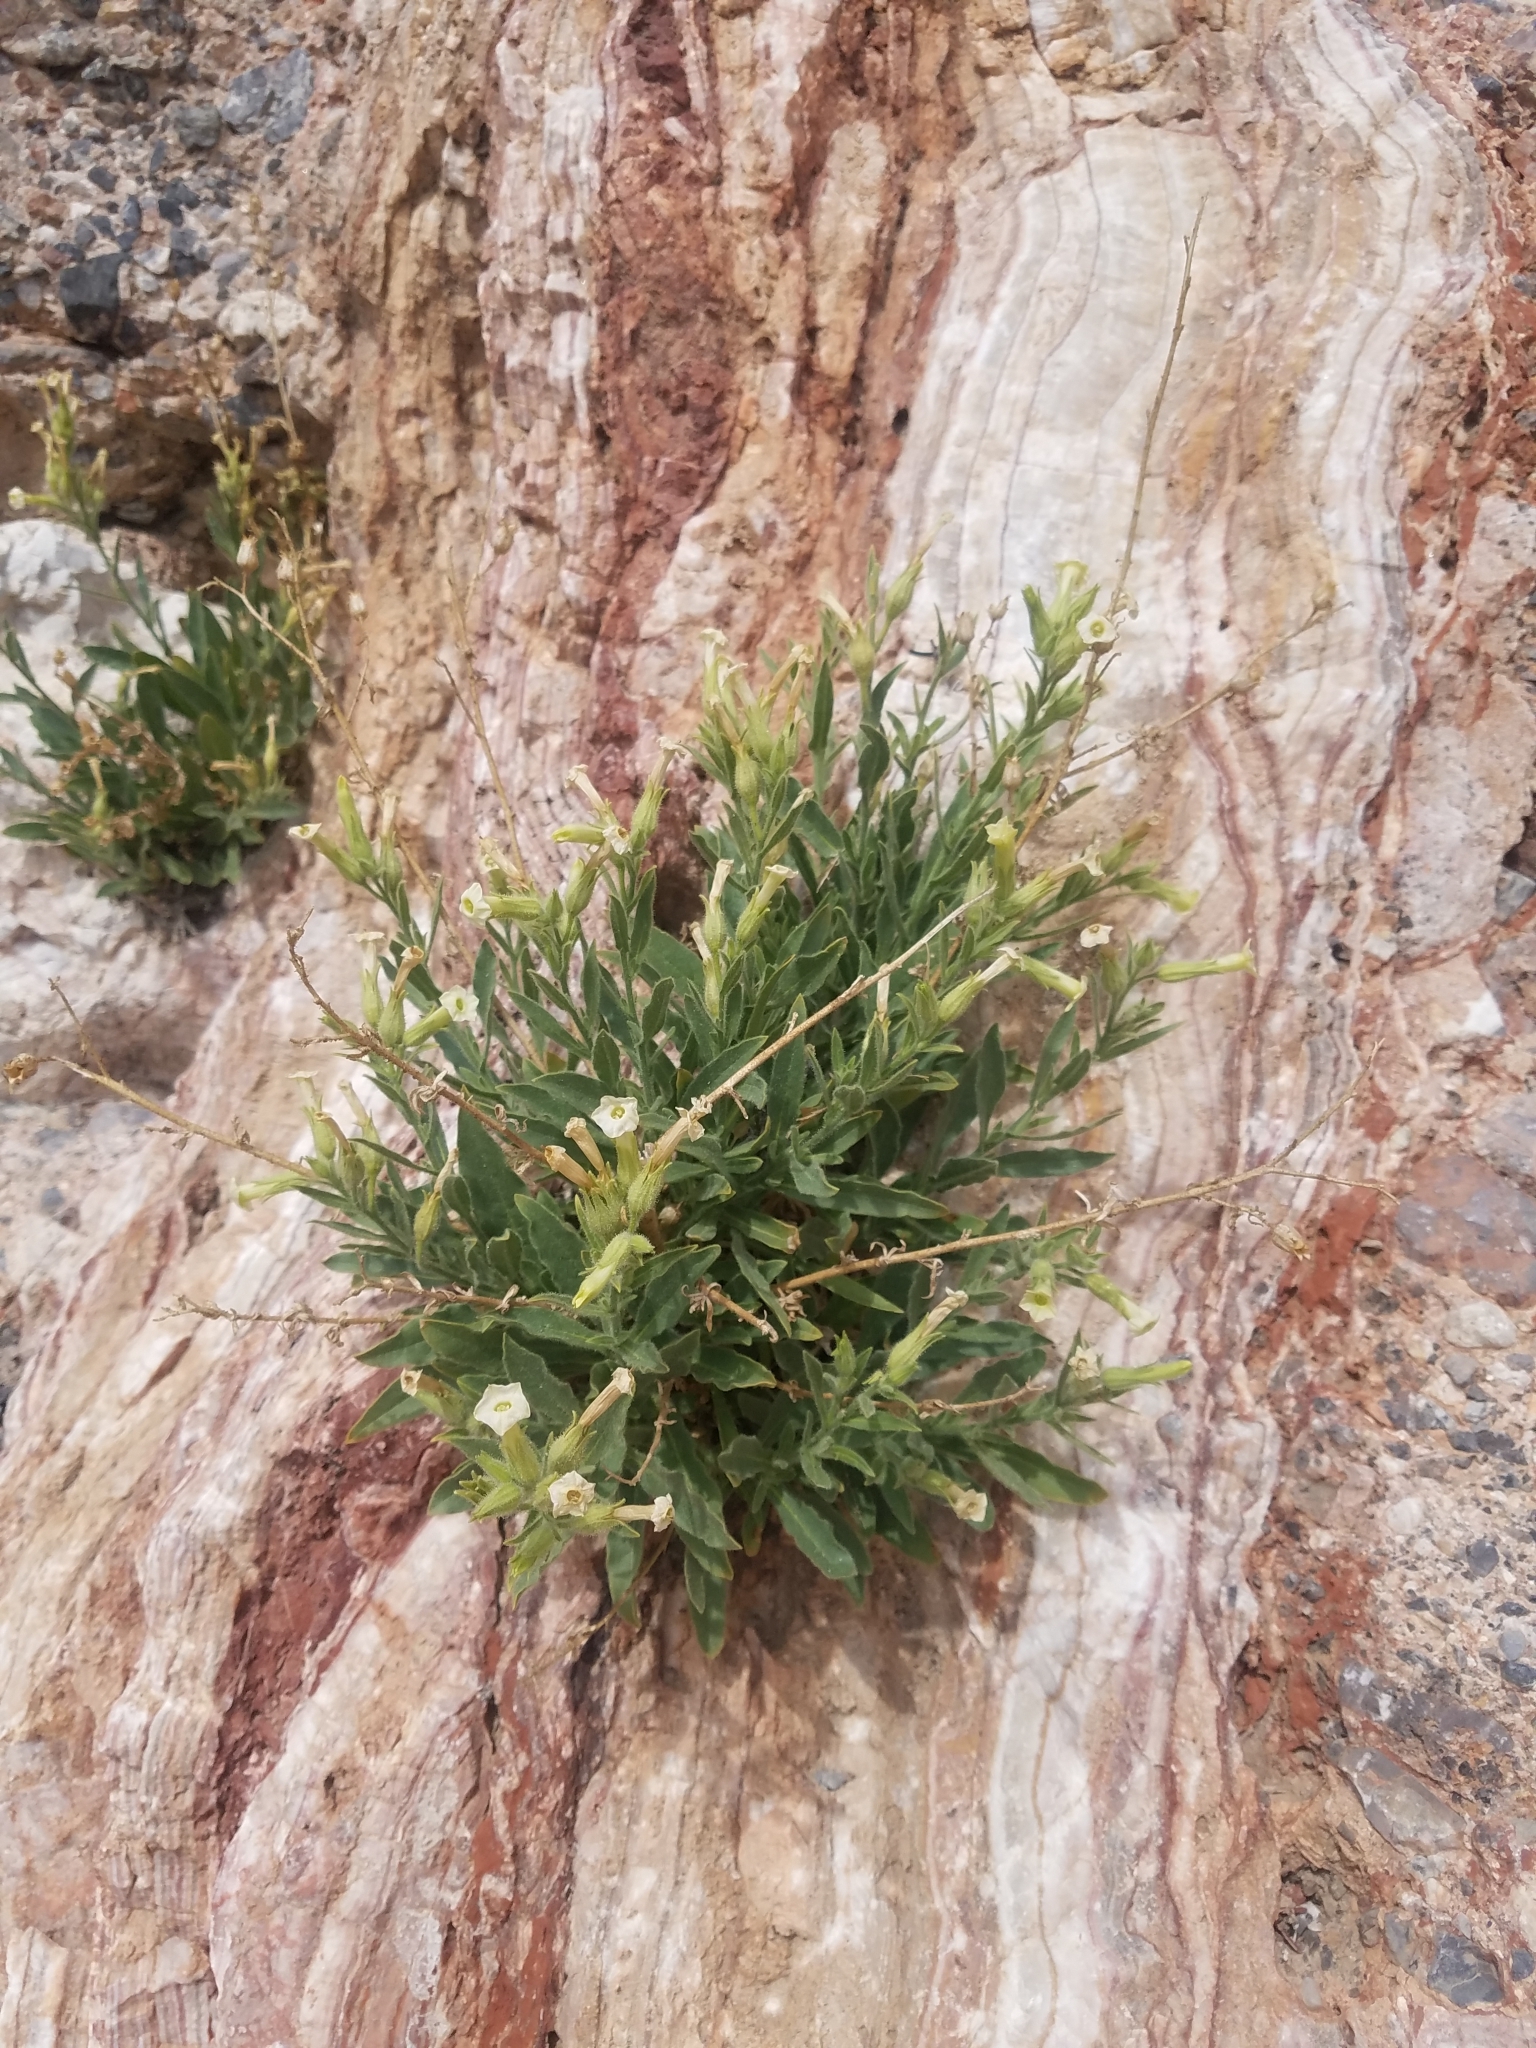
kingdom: Plantae
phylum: Tracheophyta
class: Magnoliopsida
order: Solanales
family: Solanaceae
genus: Nicotiana
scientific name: Nicotiana obtusifolia
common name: Desert tobacco
